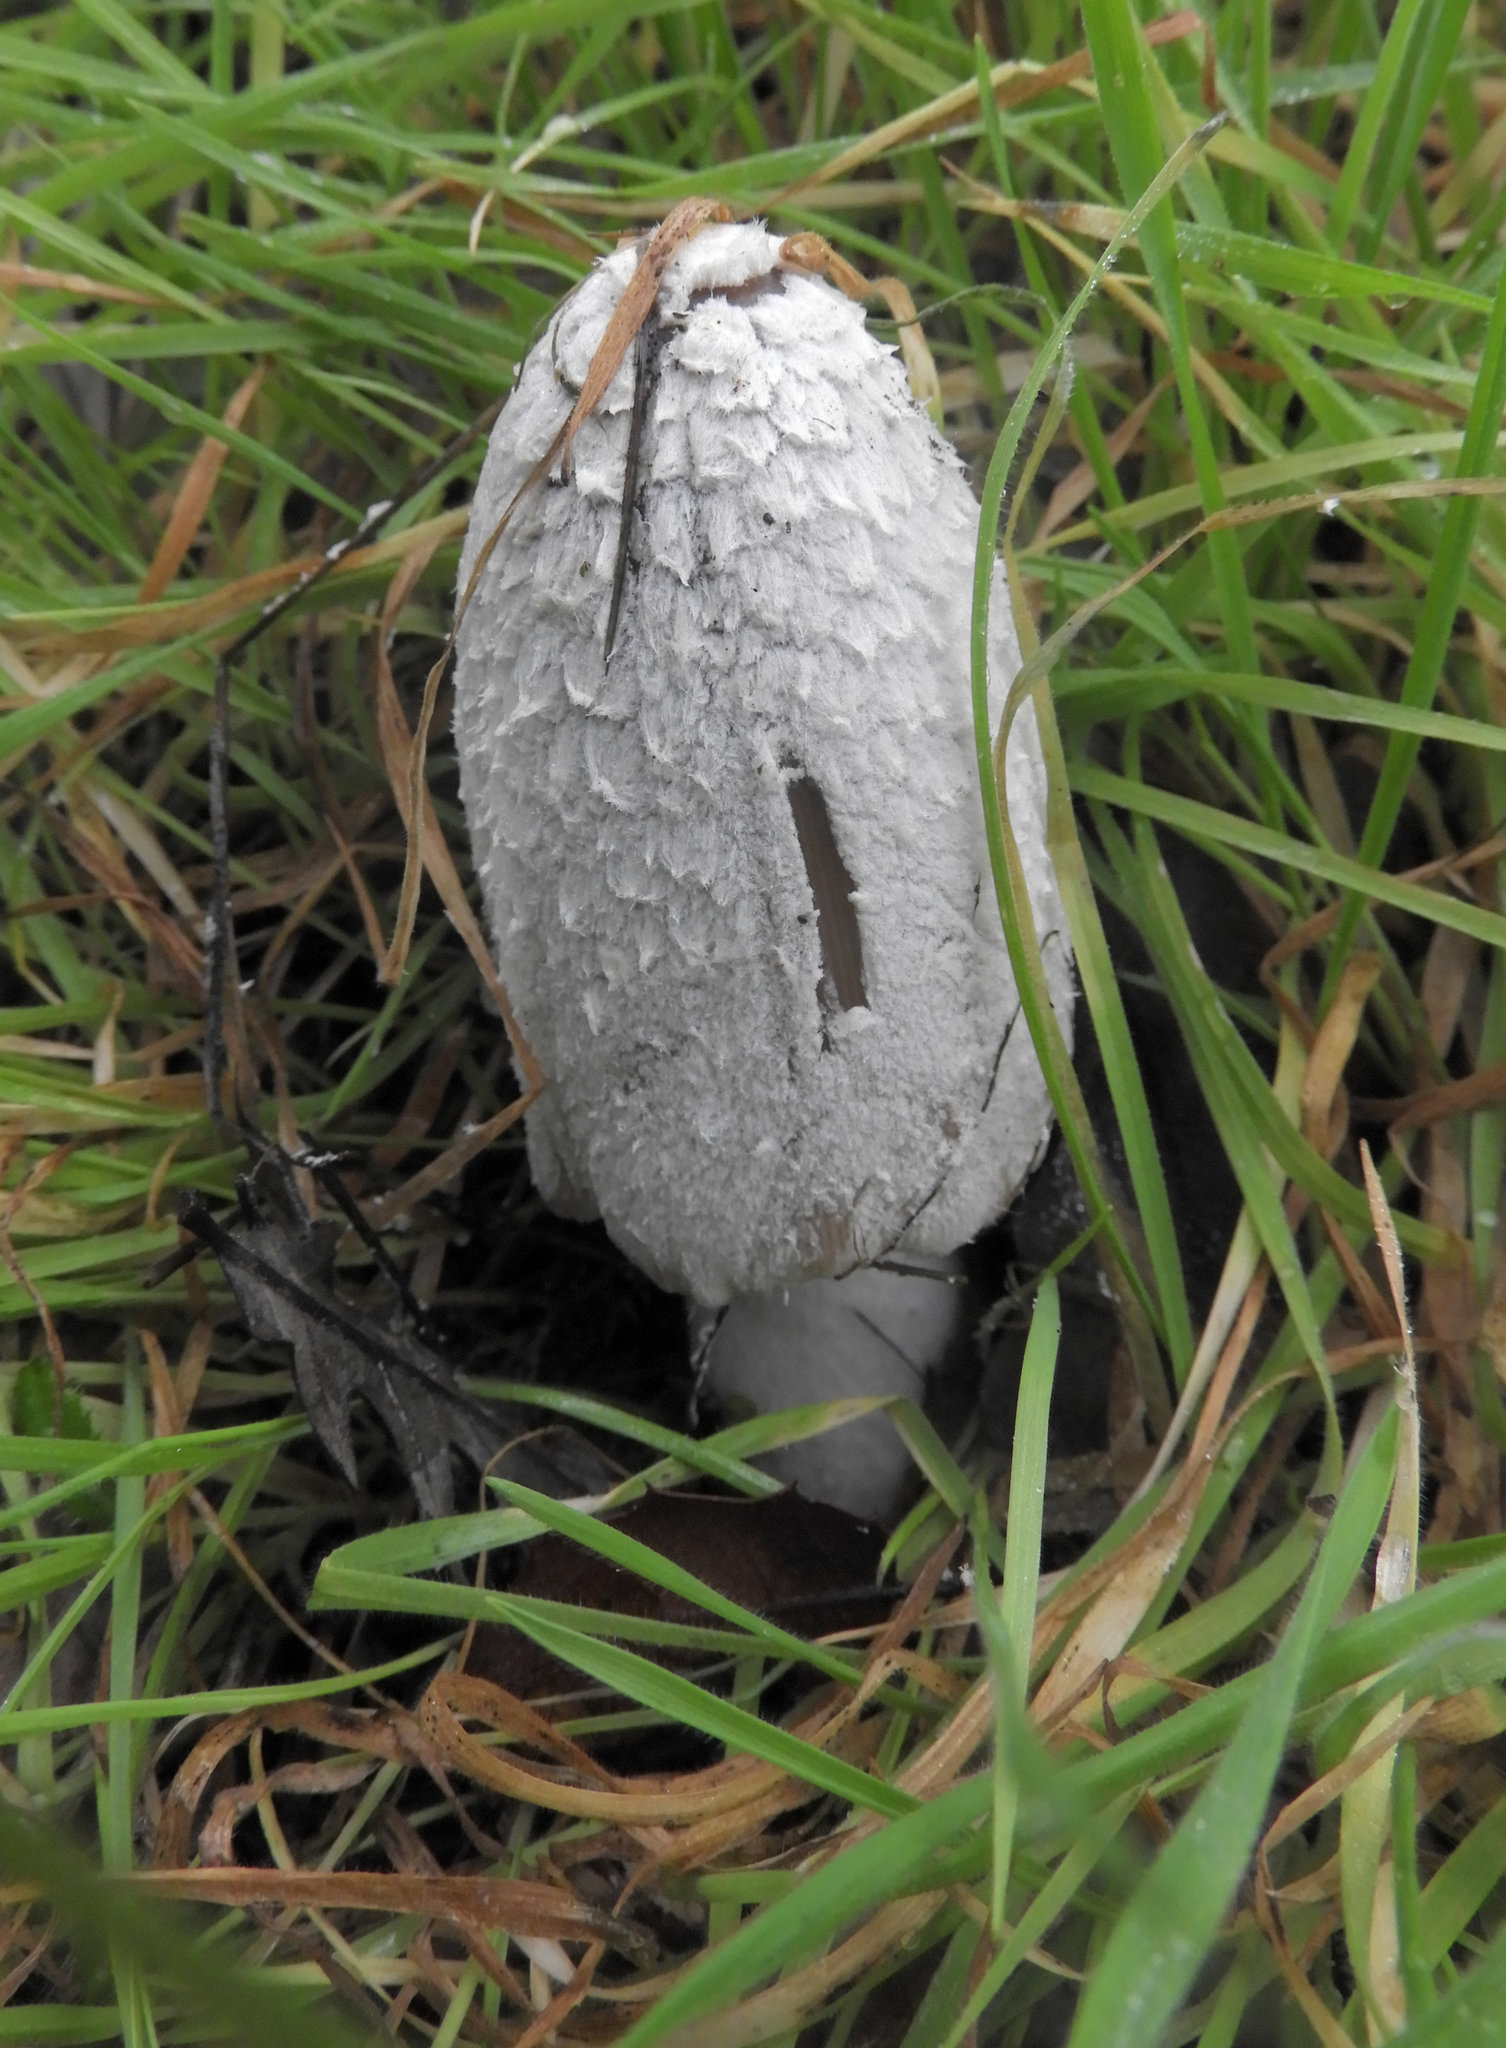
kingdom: Fungi
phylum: Basidiomycota
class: Agaricomycetes
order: Agaricales
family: Psathyrellaceae
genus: Coprinopsis
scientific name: Coprinopsis picacea
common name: Magpie inkcap
